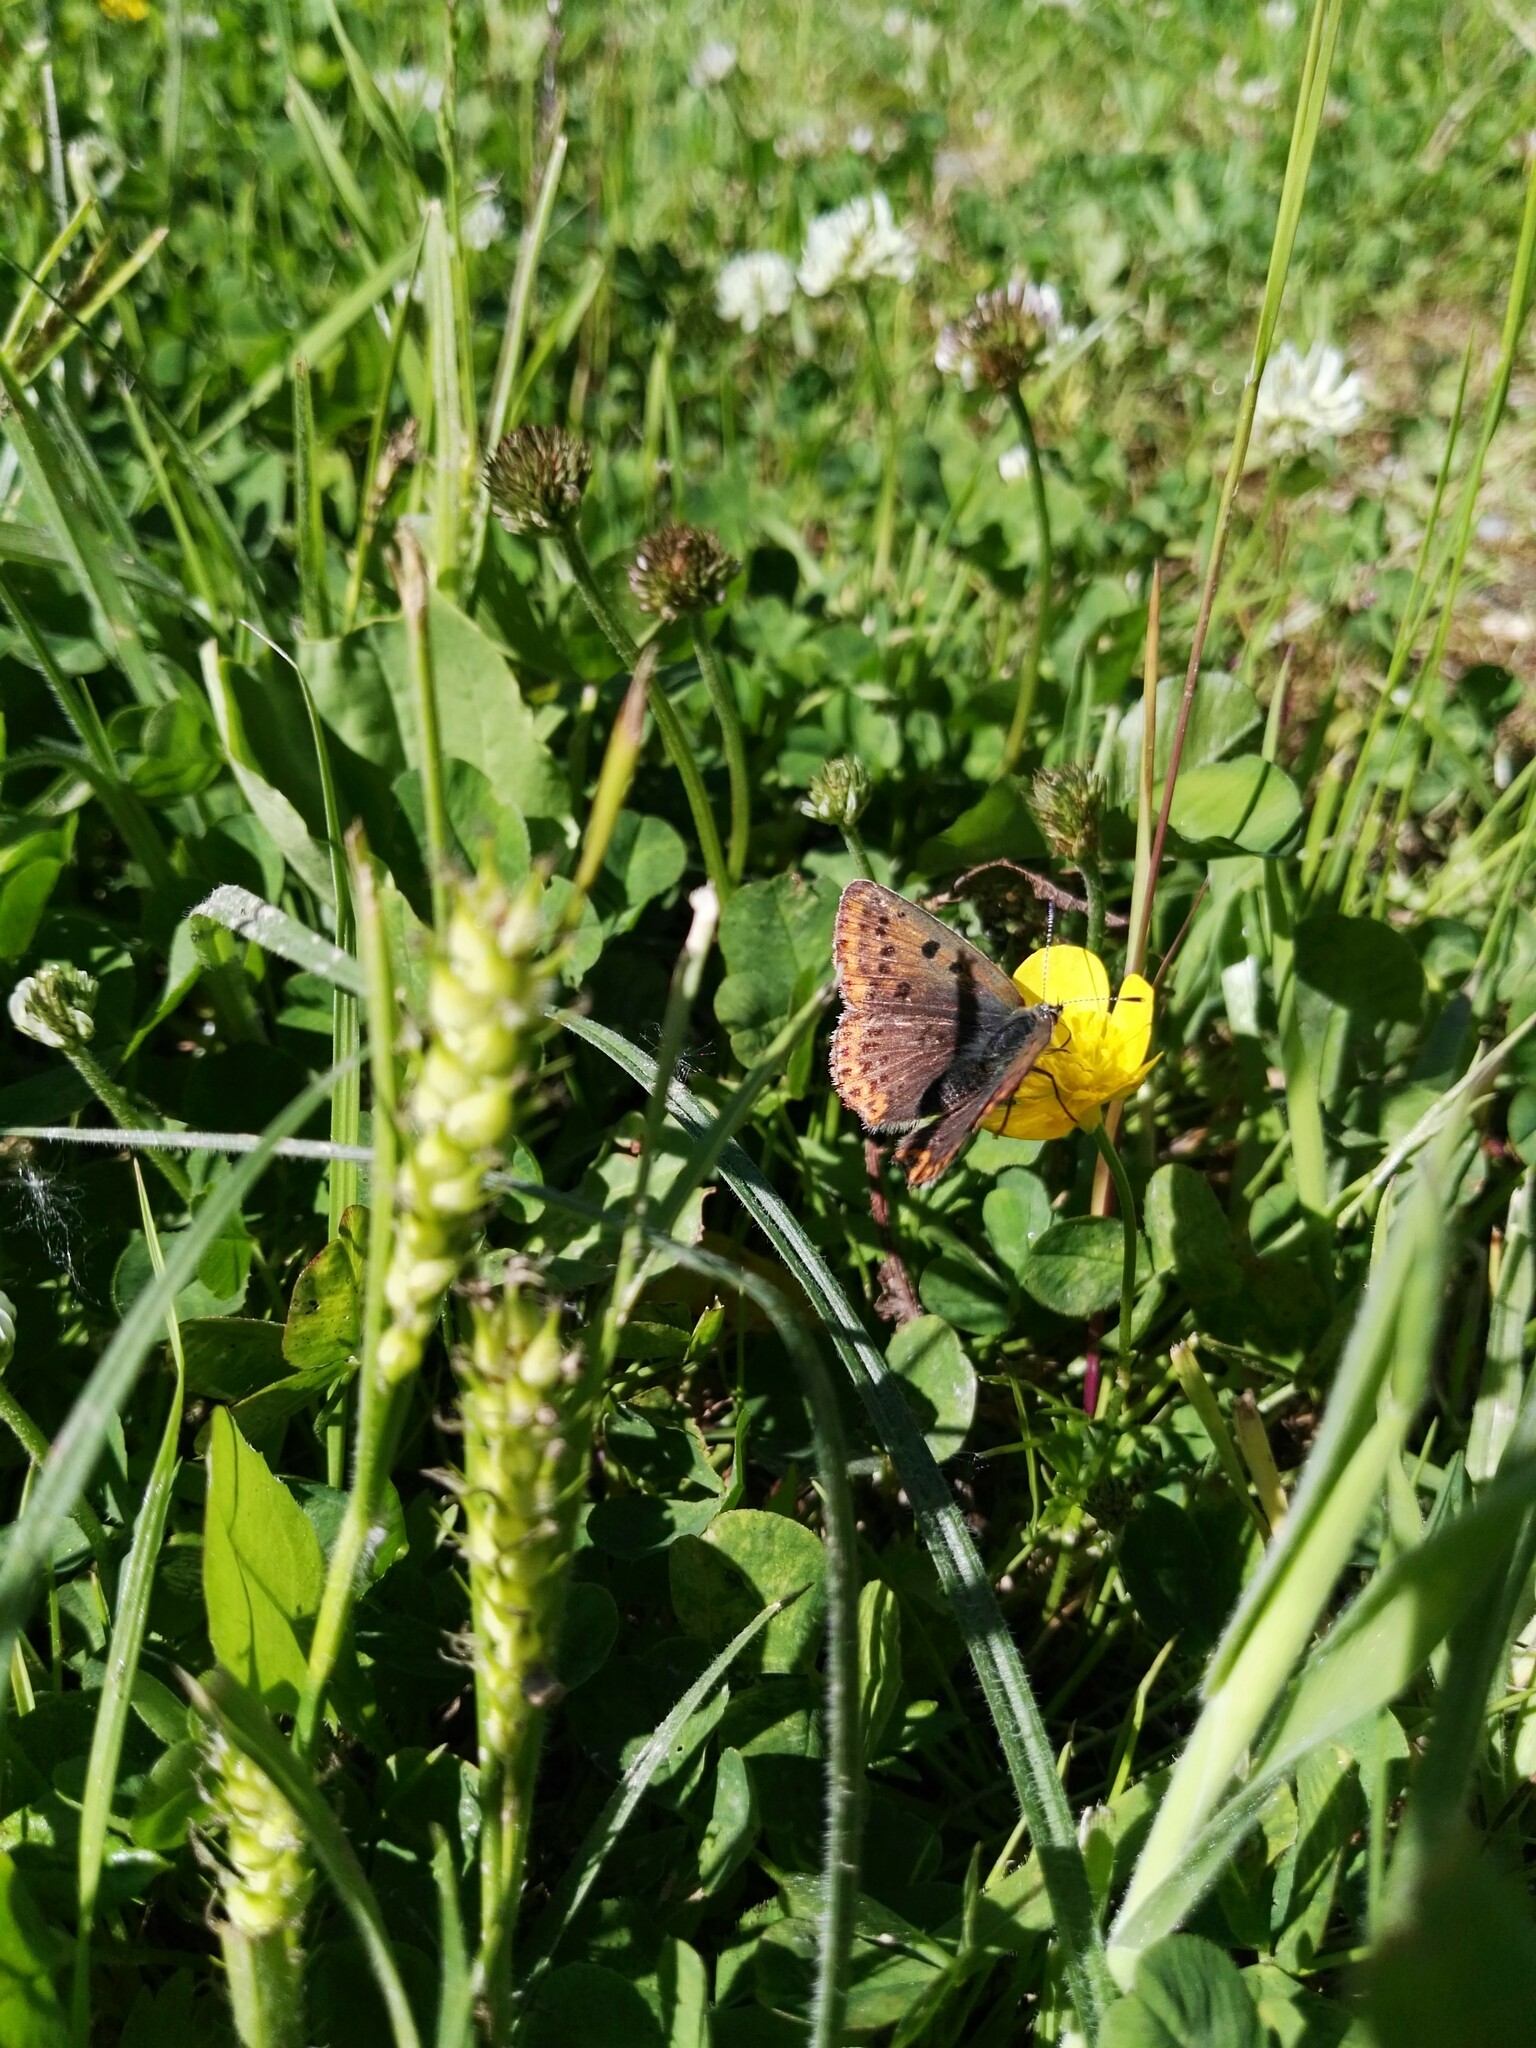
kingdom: Animalia
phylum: Arthropoda
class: Insecta
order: Lepidoptera
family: Lycaenidae
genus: Loweia
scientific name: Loweia tityrus
